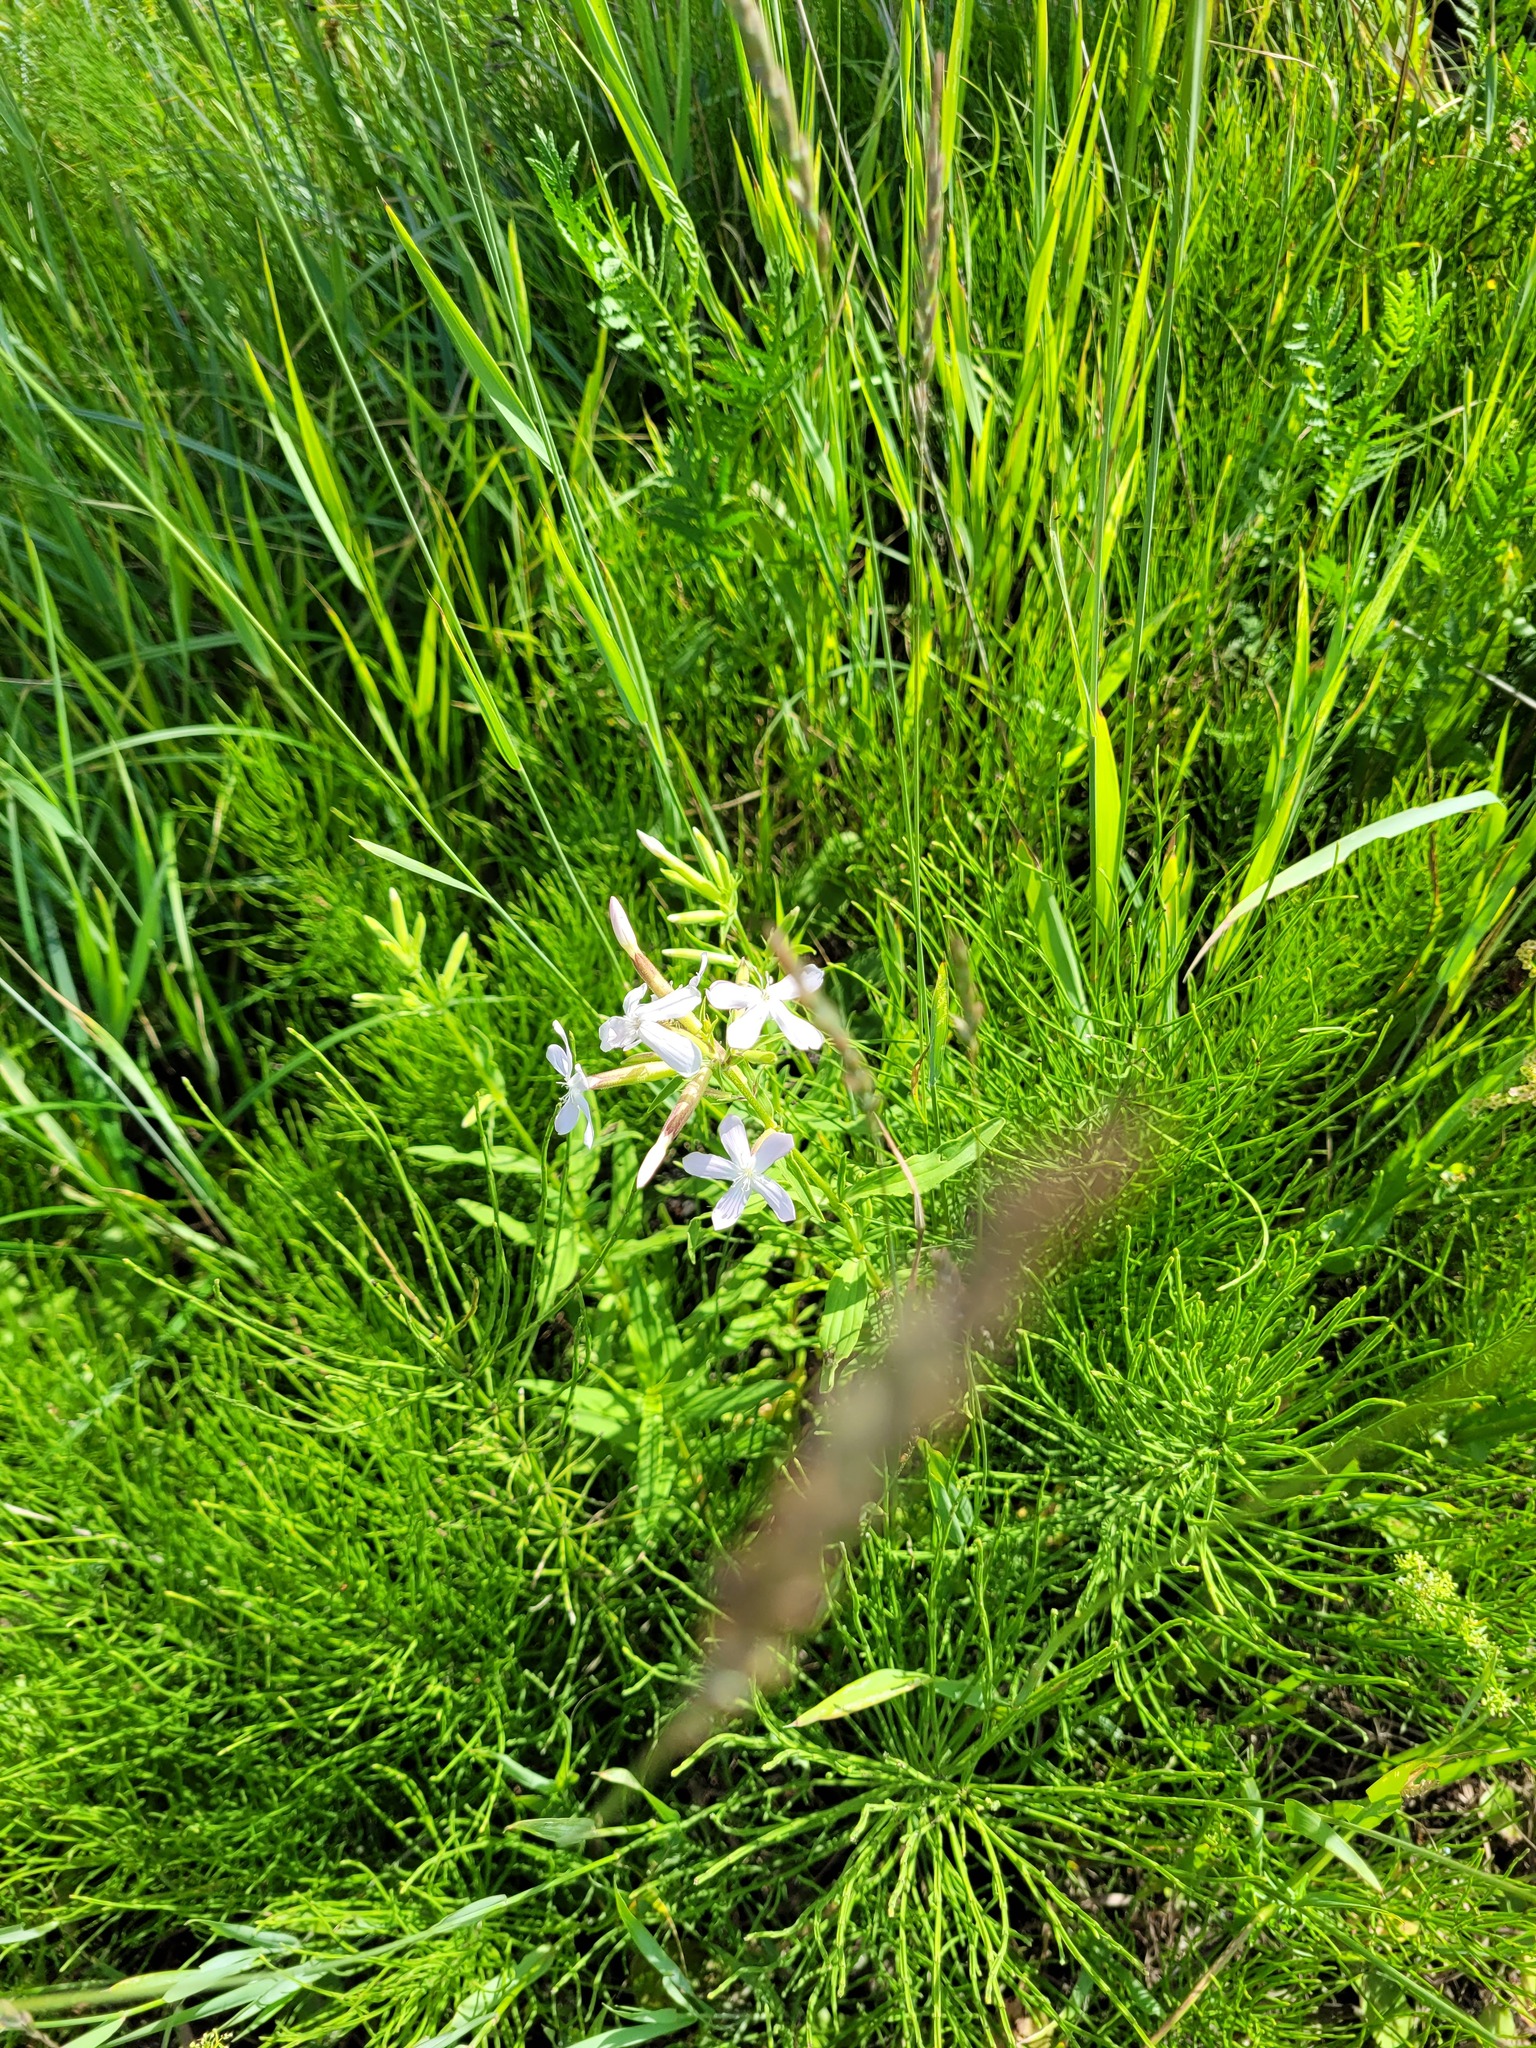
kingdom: Plantae
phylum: Tracheophyta
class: Magnoliopsida
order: Caryophyllales
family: Caryophyllaceae
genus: Saponaria
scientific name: Saponaria officinalis
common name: Soapwort
